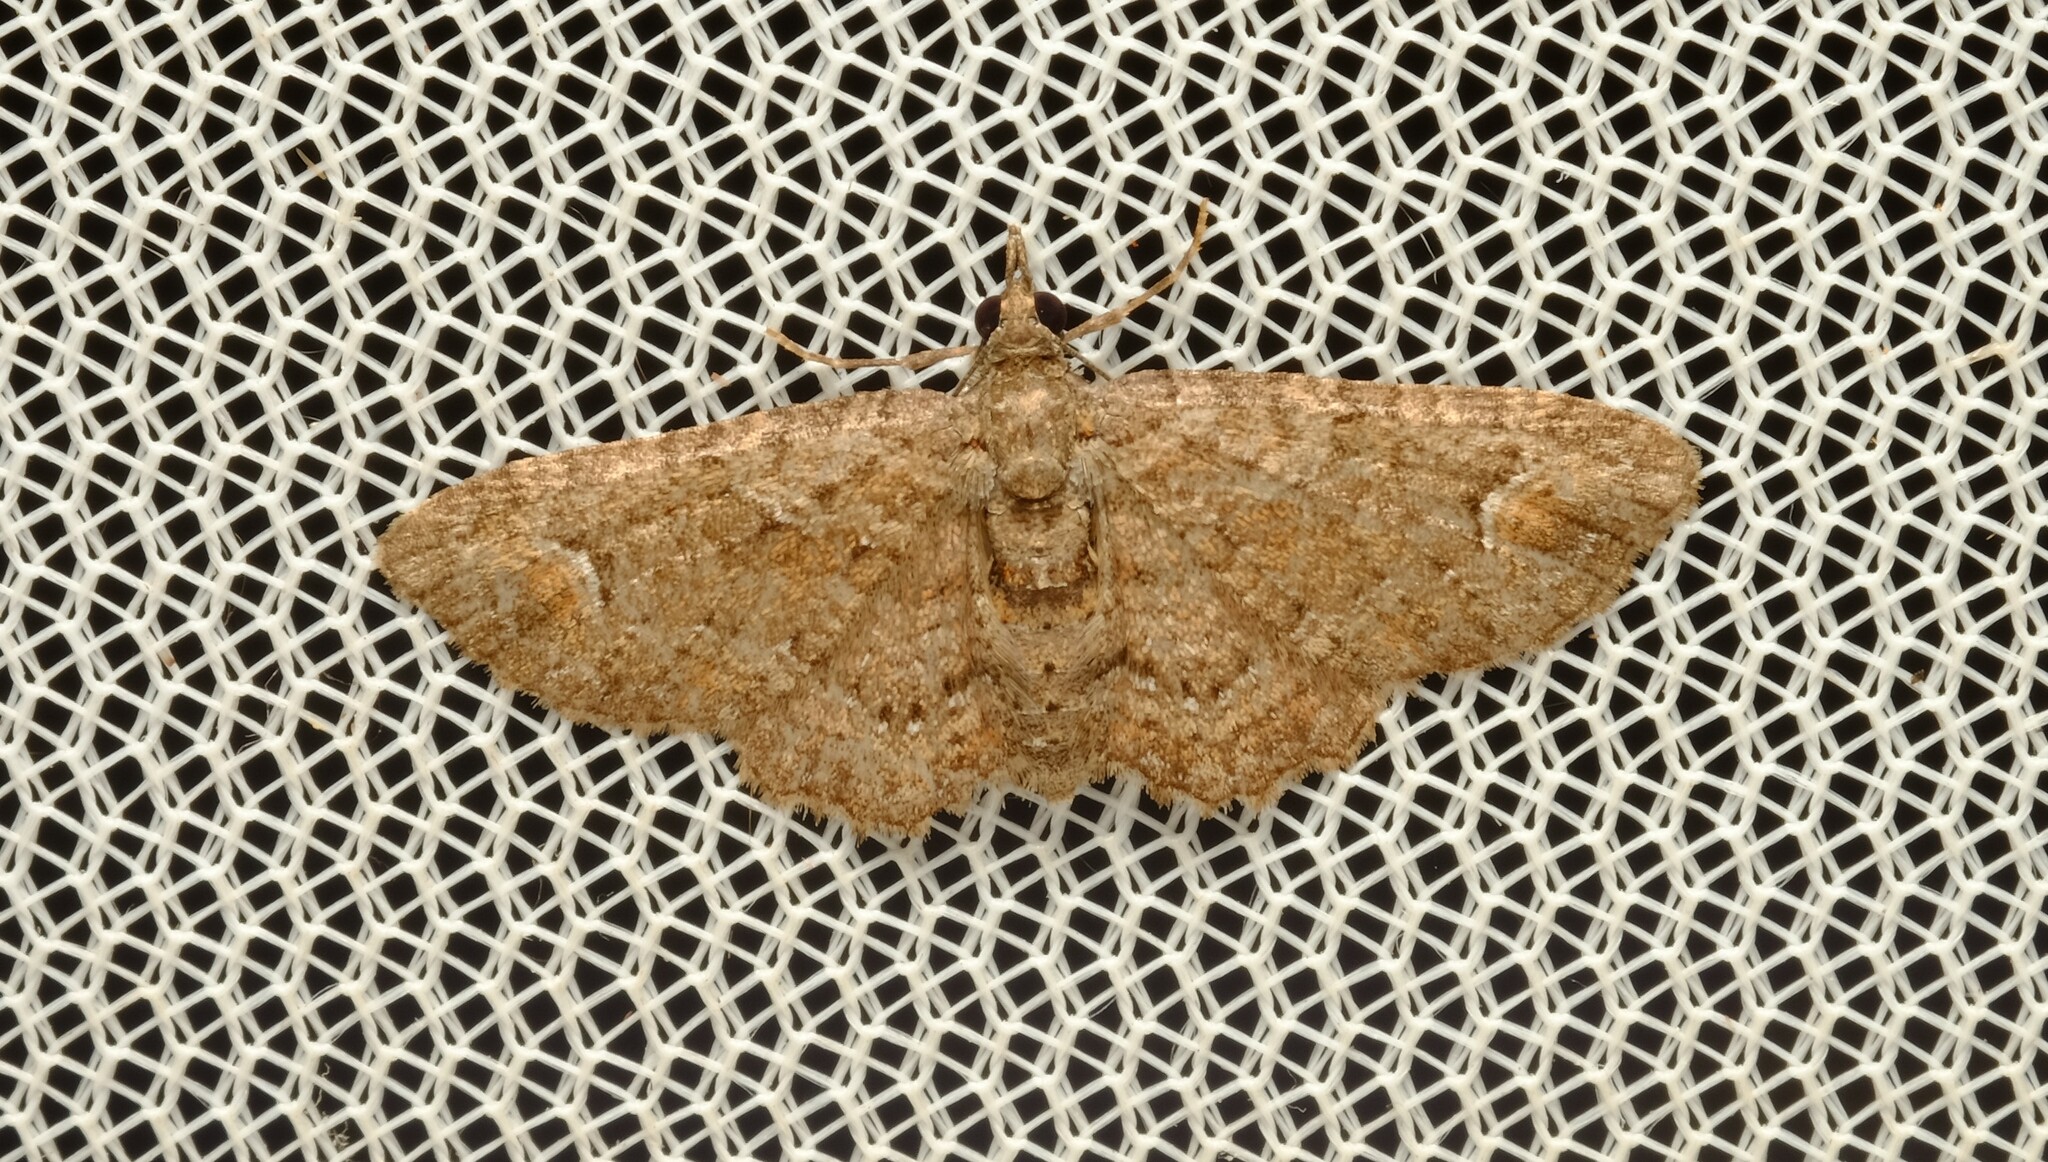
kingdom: Animalia
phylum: Arthropoda
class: Insecta
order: Lepidoptera
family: Geometridae
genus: Pasiphilodes
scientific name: Pasiphilodes testulata
